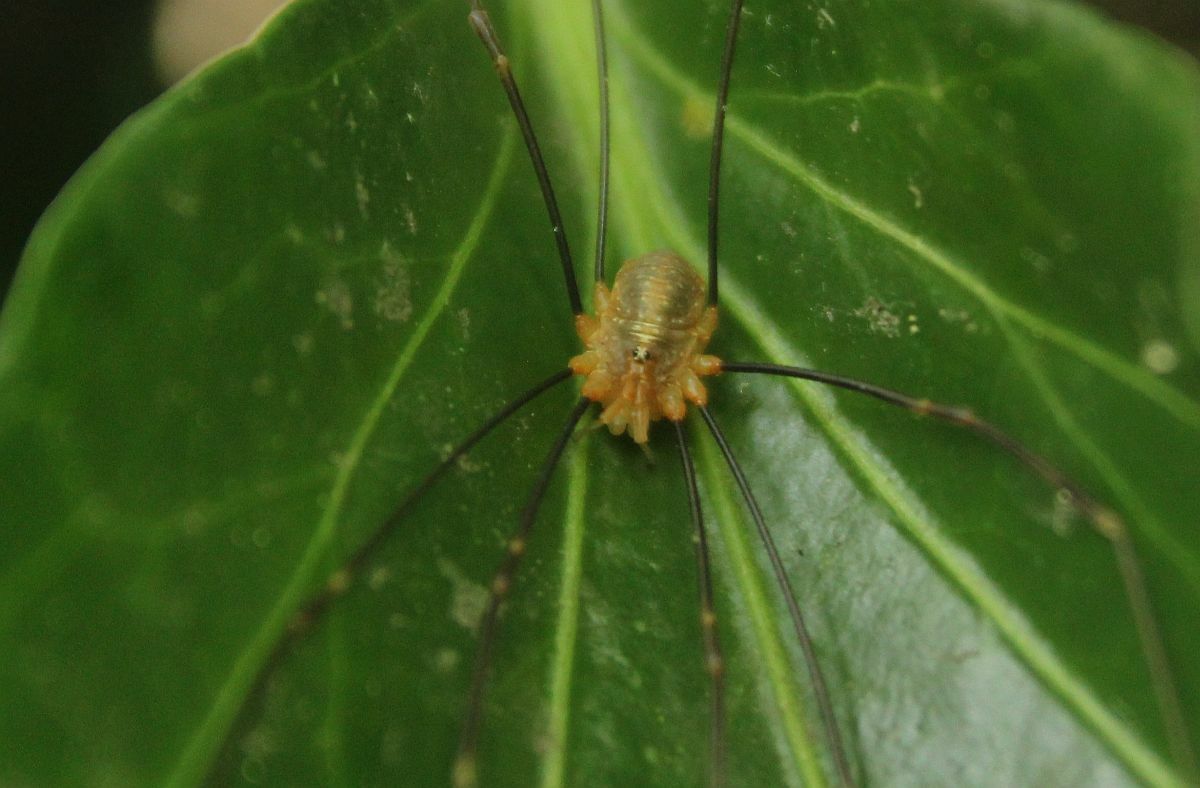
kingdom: Animalia
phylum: Arthropoda
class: Arachnida
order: Opiliones
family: Phalangiidae
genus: Opilio
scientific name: Opilio canestrinii
